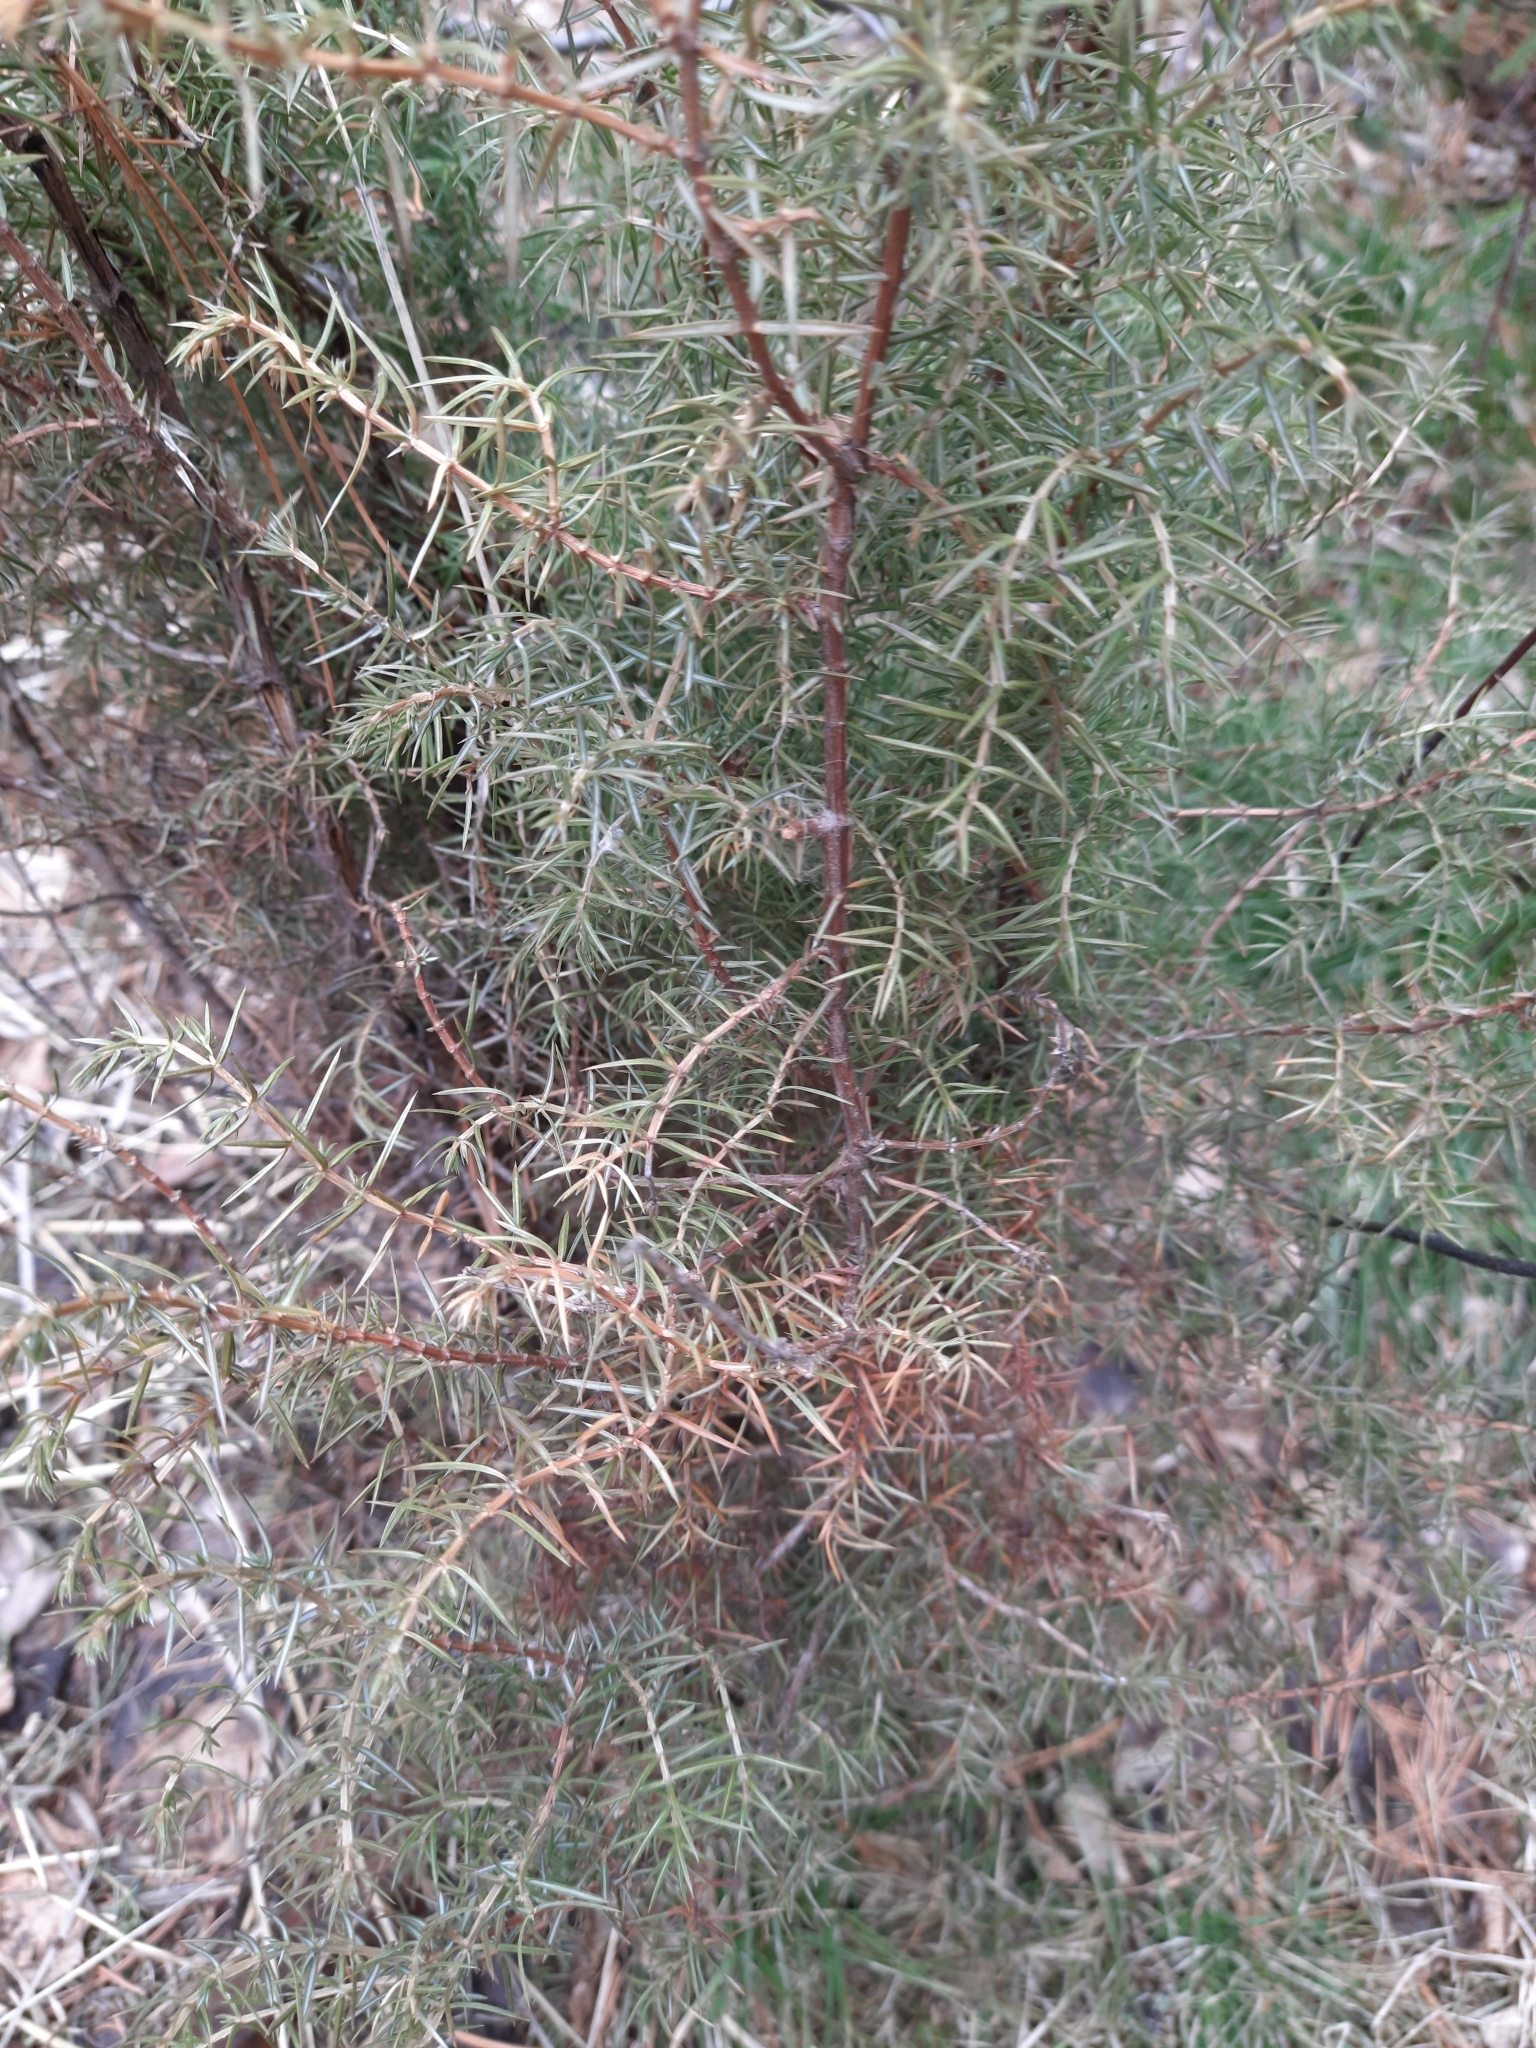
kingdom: Plantae
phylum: Tracheophyta
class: Pinopsida
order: Pinales
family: Cupressaceae
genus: Juniperus
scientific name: Juniperus communis
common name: Common juniper
